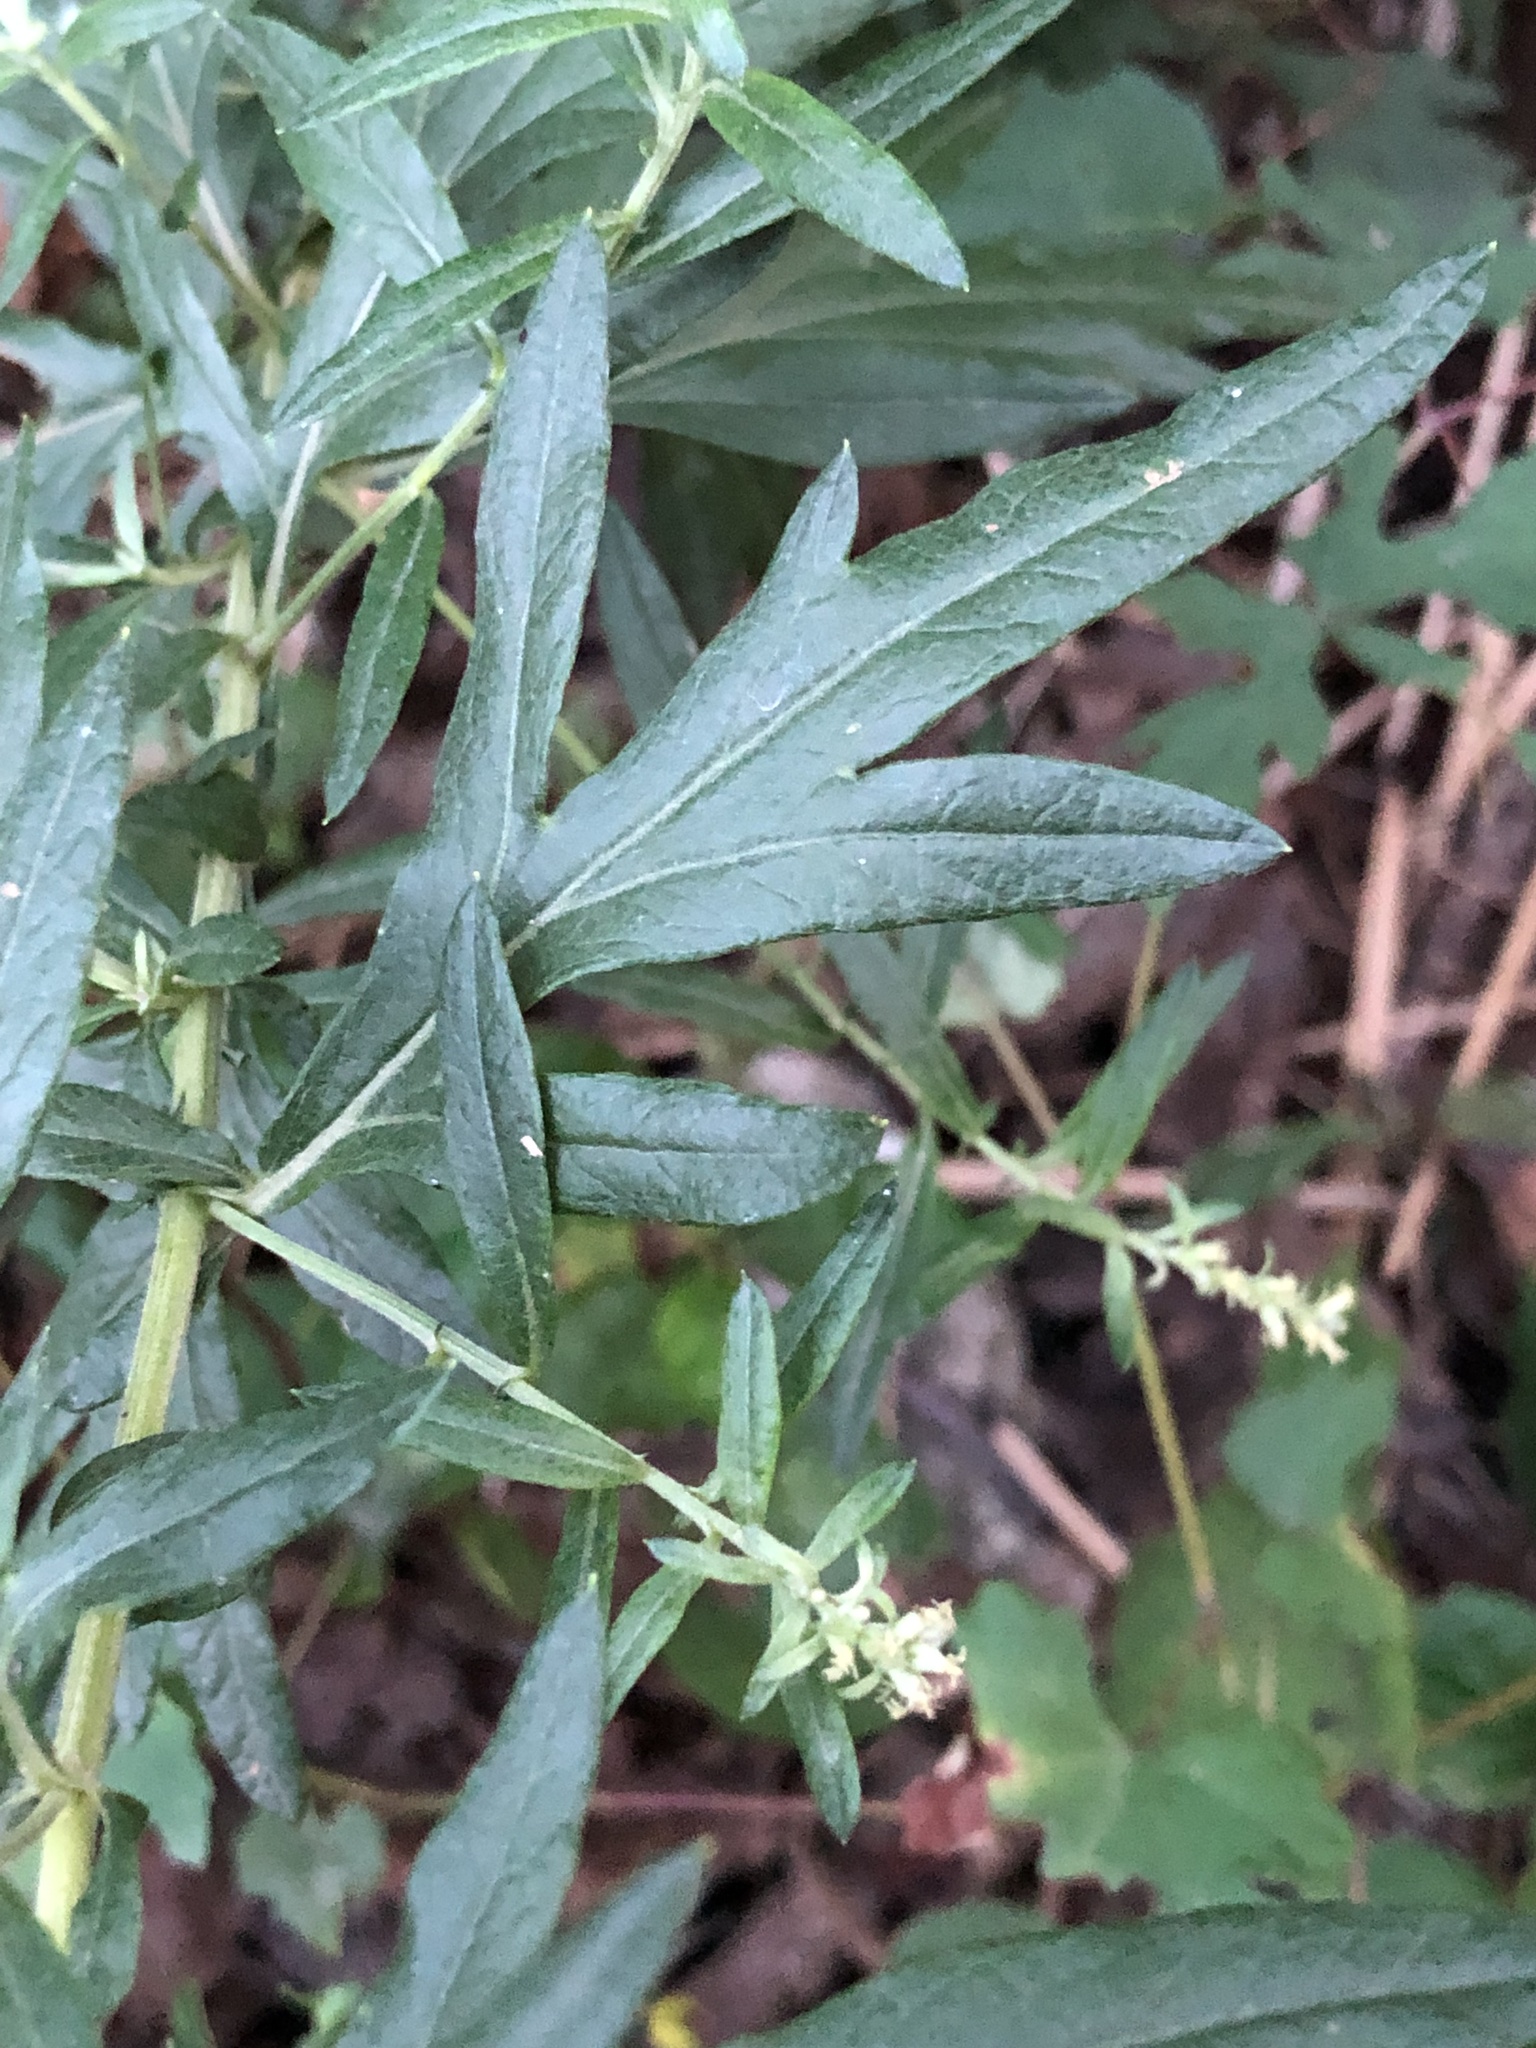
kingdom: Plantae
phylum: Tracheophyta
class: Magnoliopsida
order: Asterales
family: Asteraceae
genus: Artemisia
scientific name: Artemisia vulgaris
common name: Mugwort
